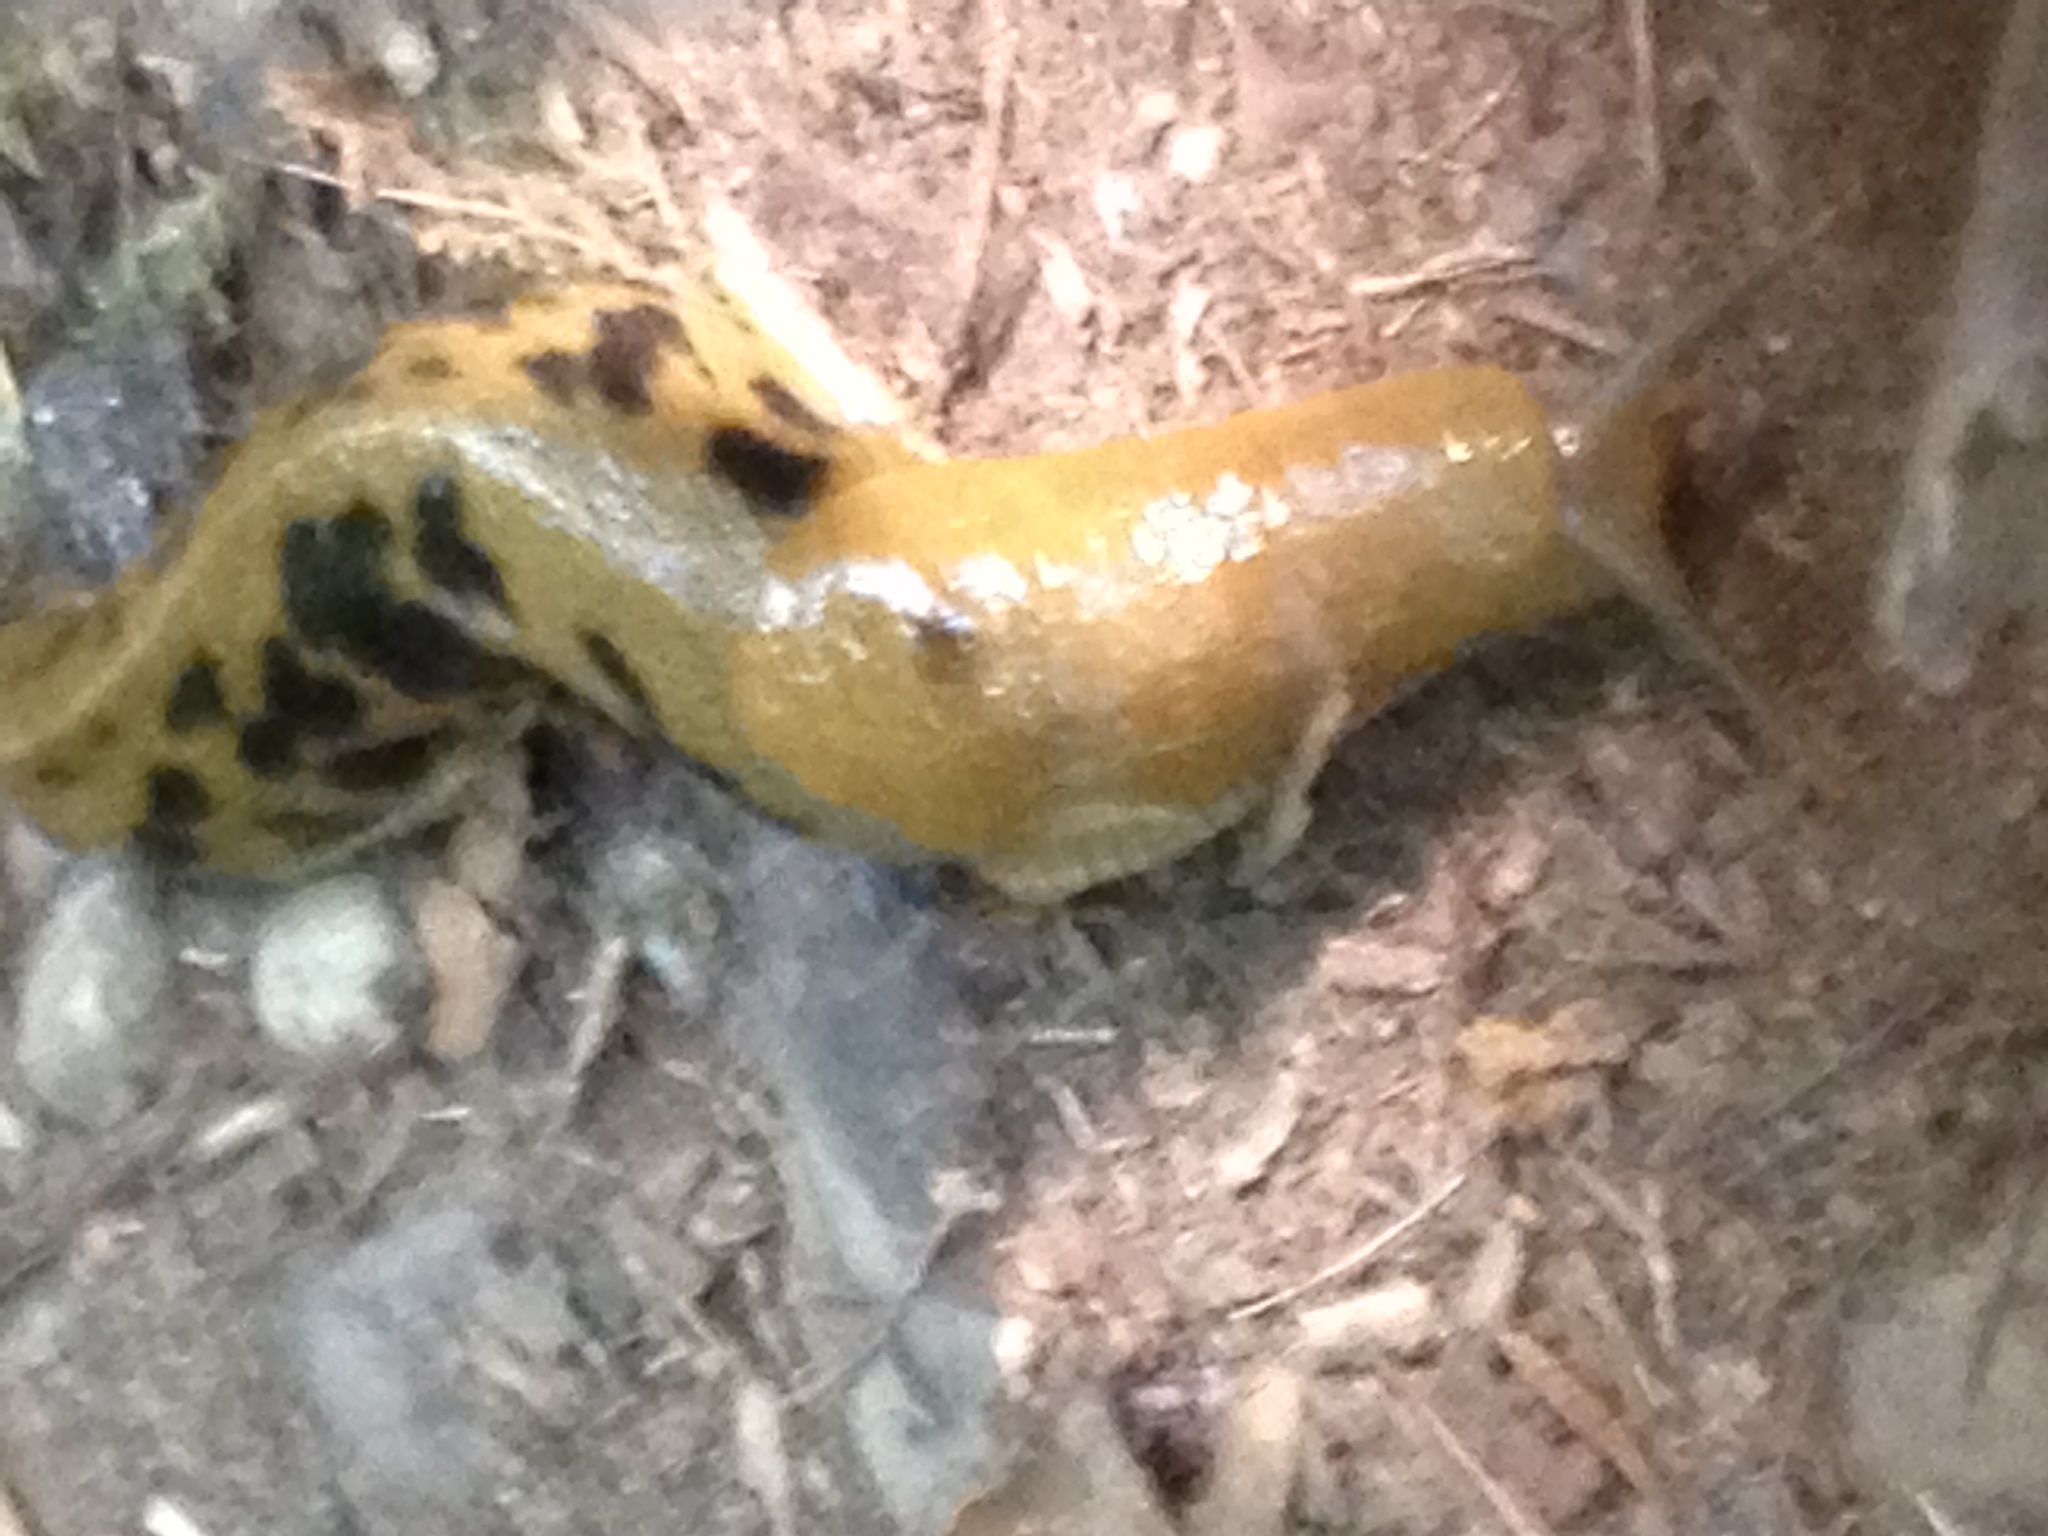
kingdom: Animalia
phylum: Mollusca
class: Gastropoda
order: Stylommatophora
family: Ariolimacidae
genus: Ariolimax
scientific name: Ariolimax columbianus
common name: Pacific banana slug
